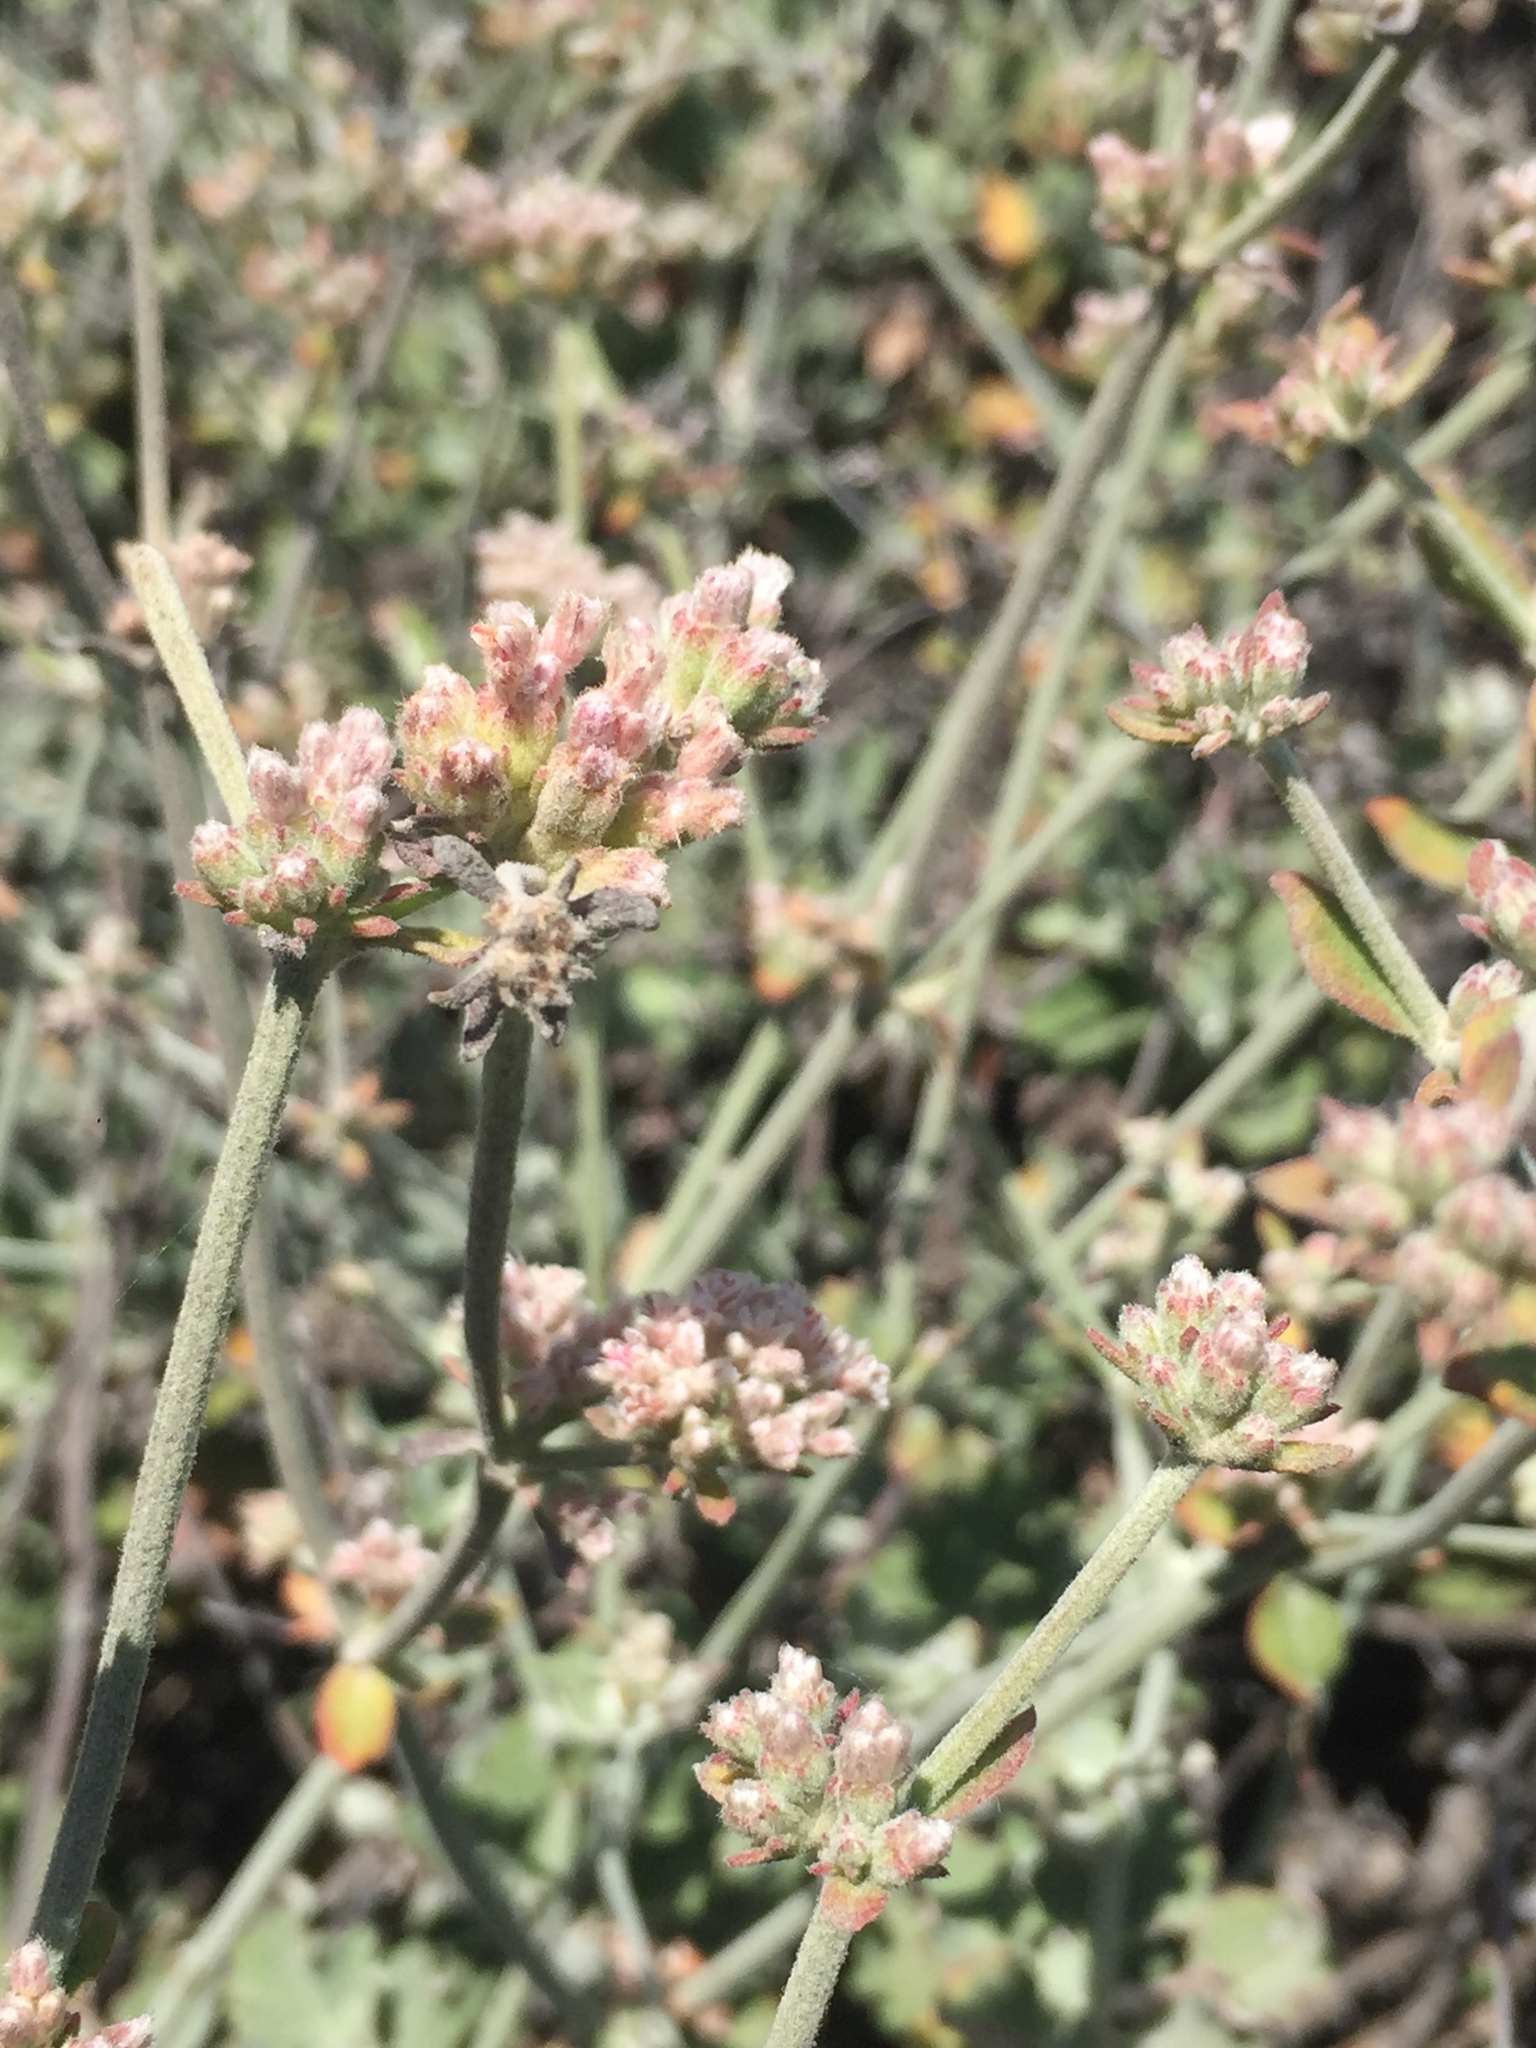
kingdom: Plantae
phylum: Tracheophyta
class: Magnoliopsida
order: Caryophyllales
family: Polygonaceae
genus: Eriogonum
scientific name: Eriogonum cinereum
